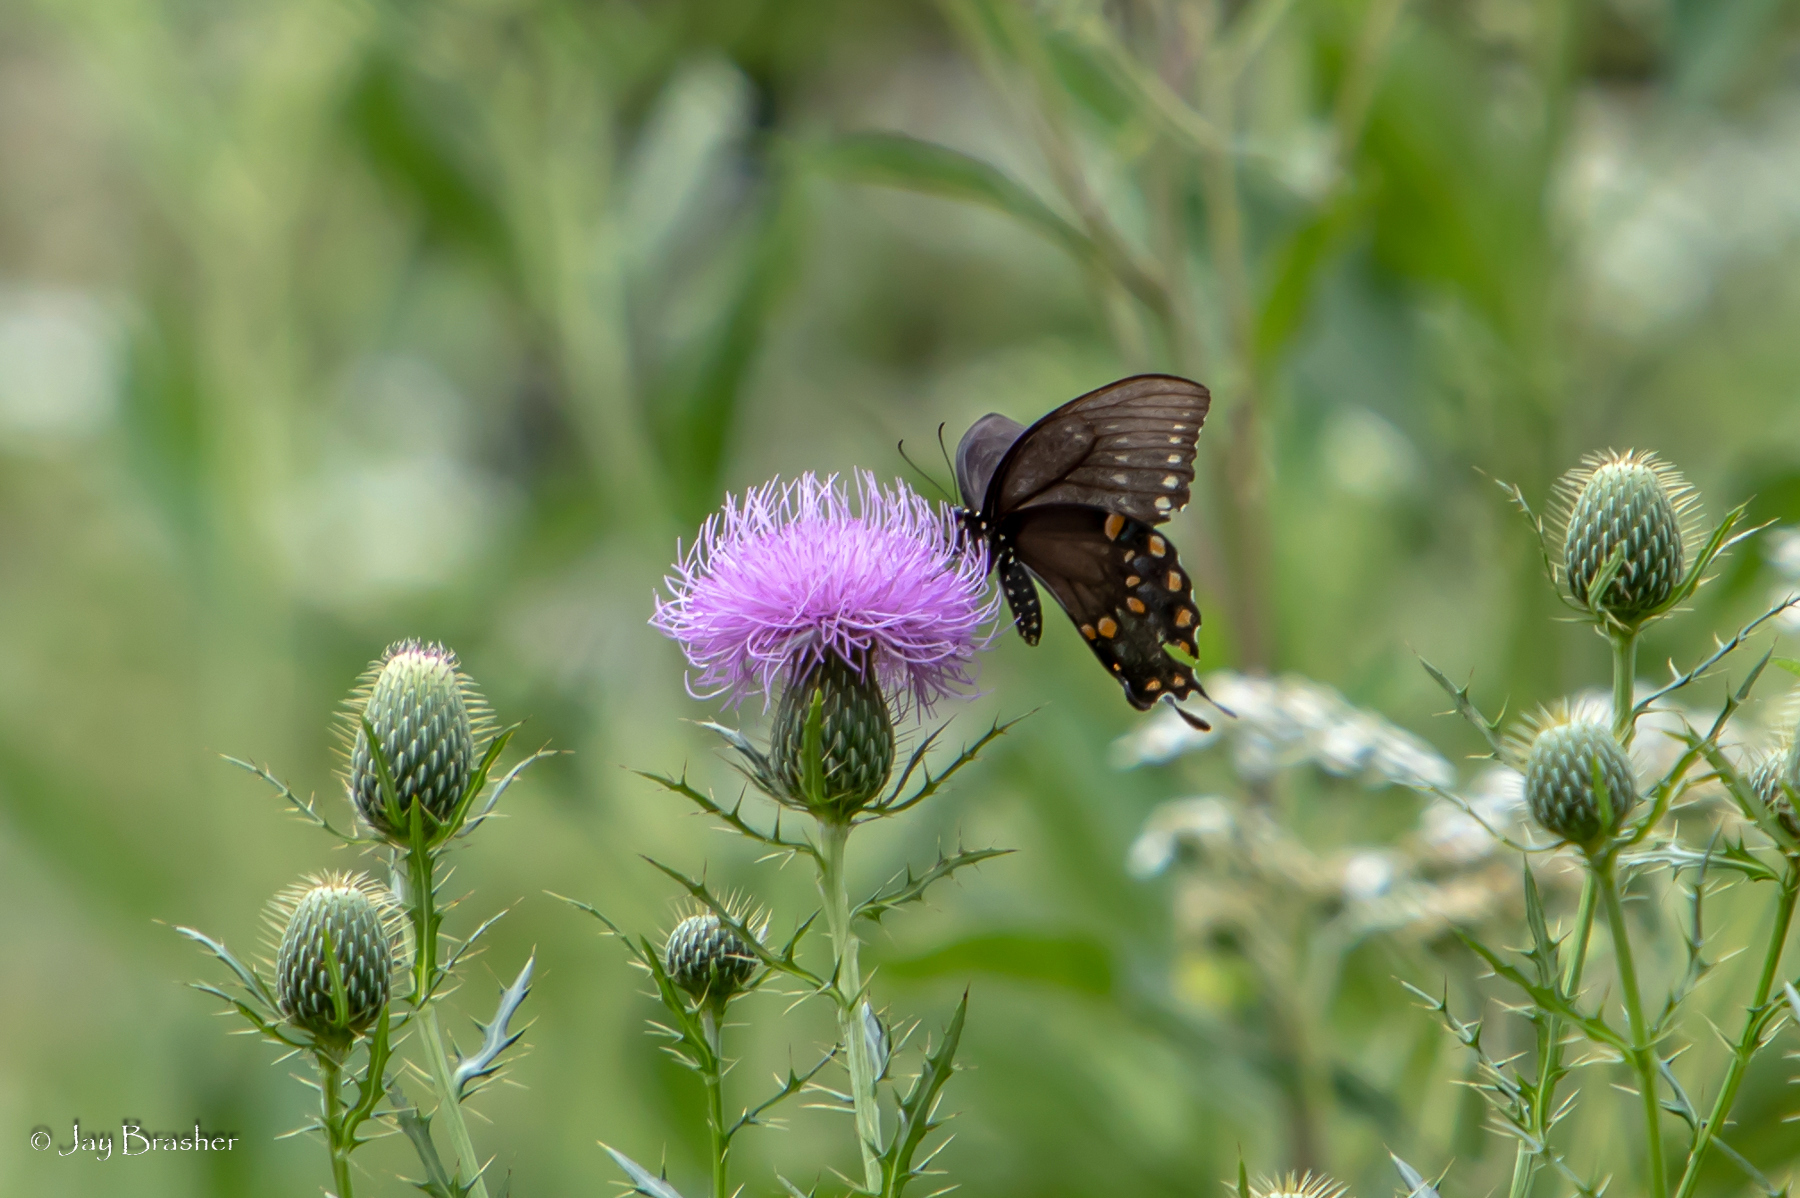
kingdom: Animalia
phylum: Arthropoda
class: Insecta
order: Lepidoptera
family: Papilionidae
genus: Papilio
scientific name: Papilio troilus
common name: Spicebush swallowtail
